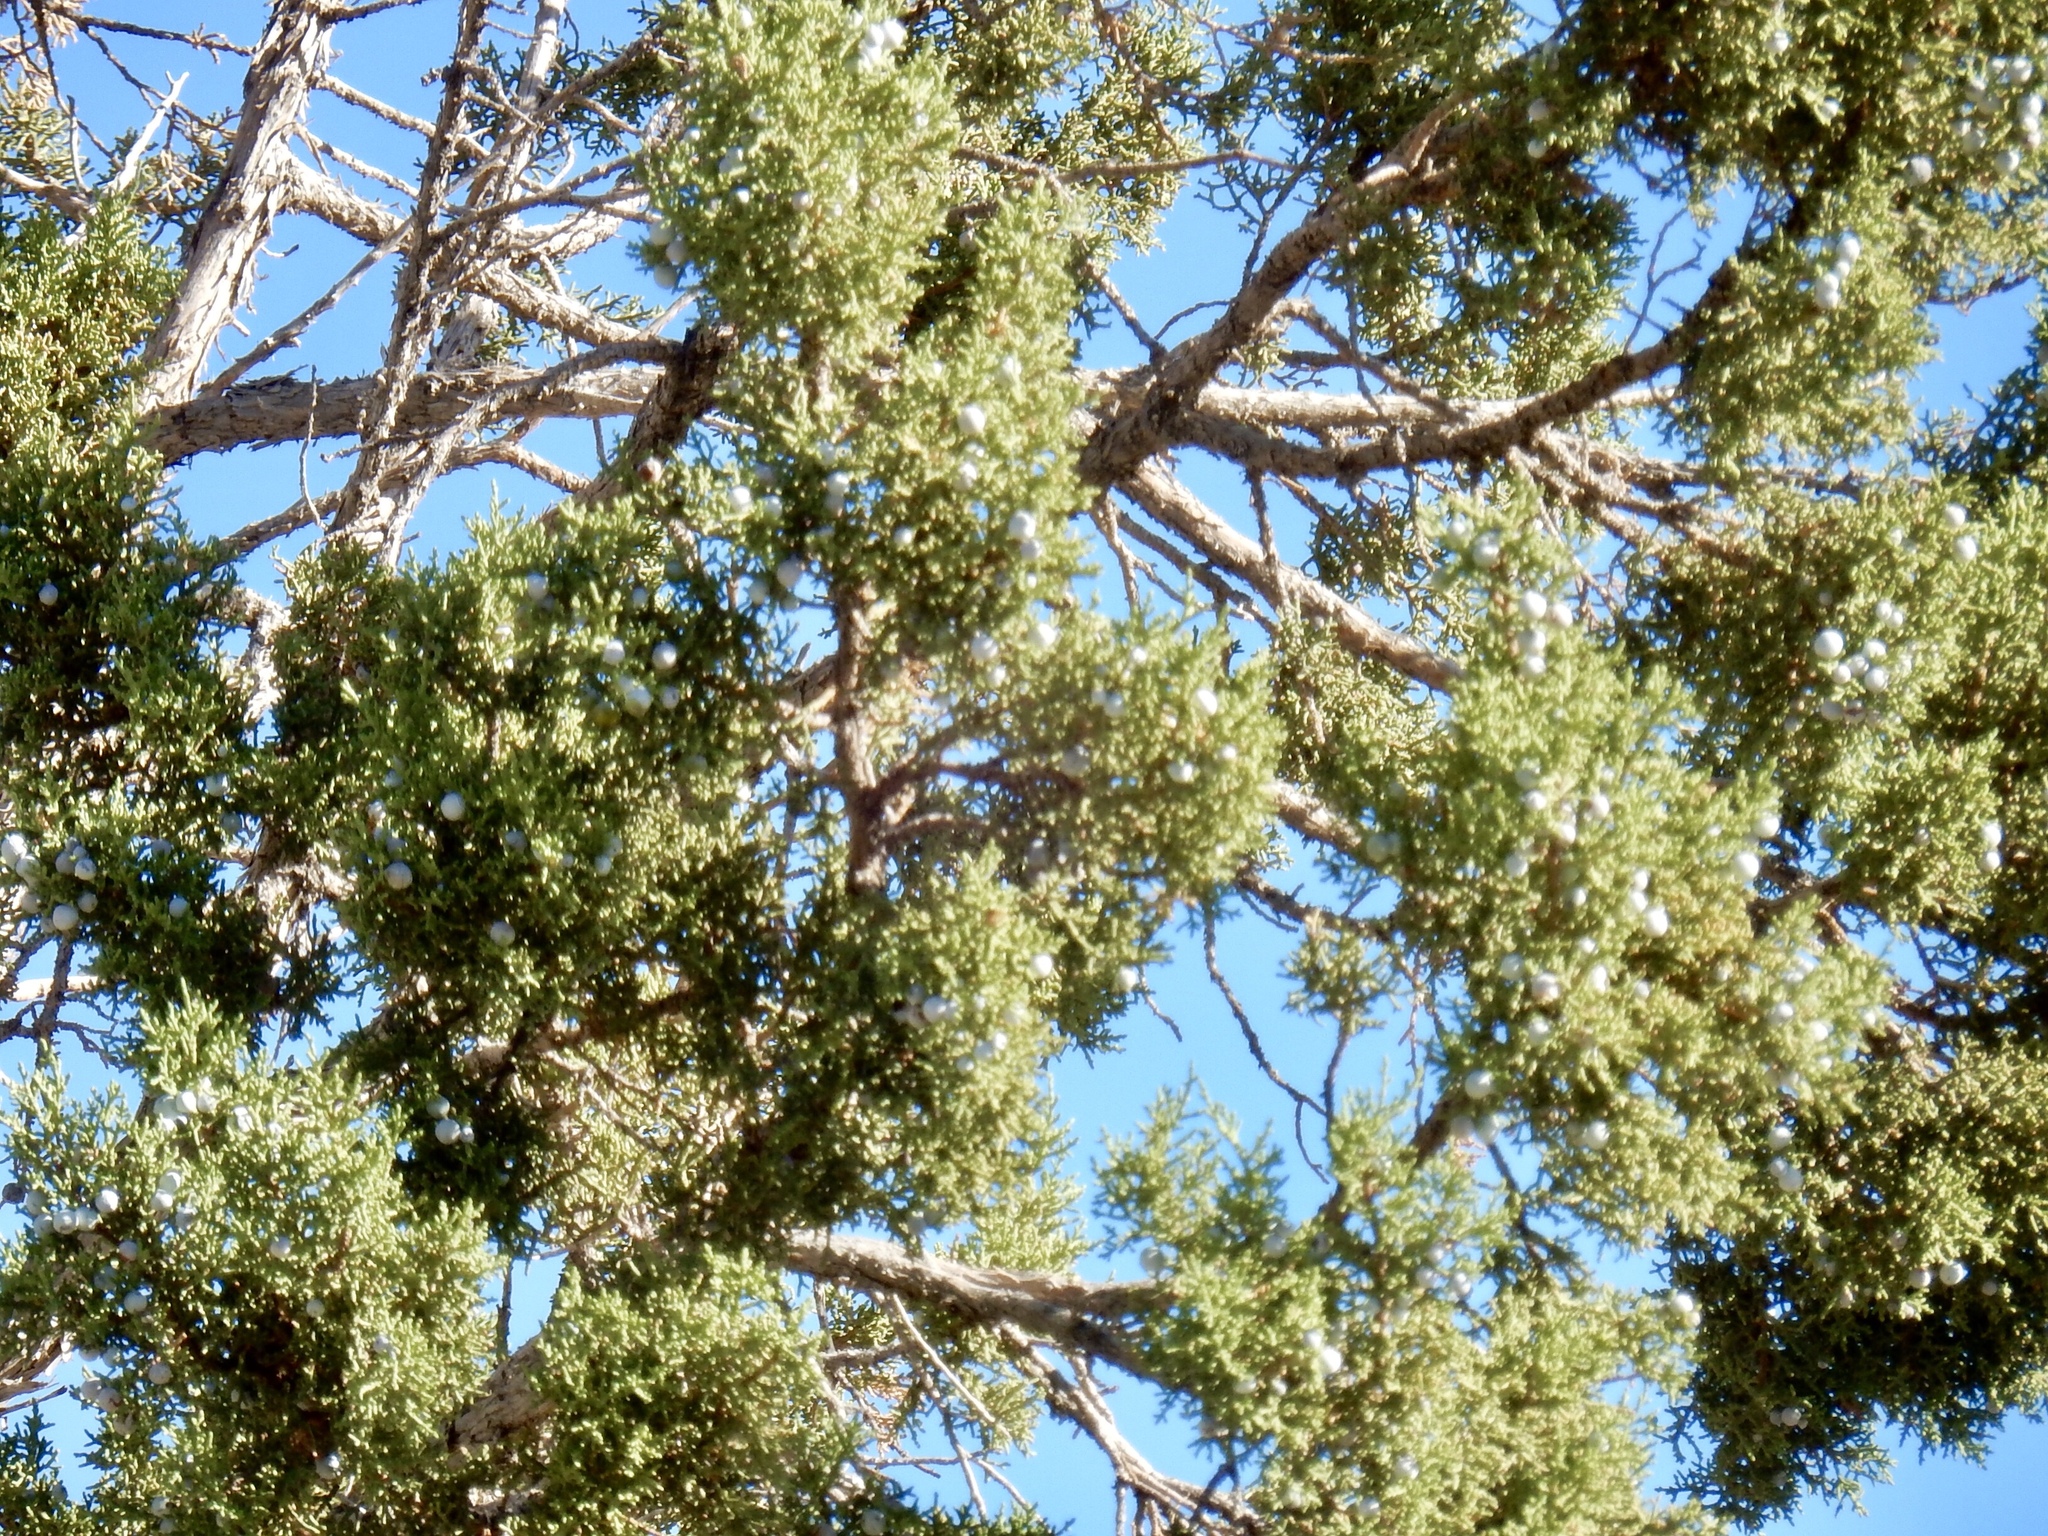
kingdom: Plantae
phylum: Tracheophyta
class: Pinopsida
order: Pinales
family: Cupressaceae
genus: Juniperus
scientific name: Juniperus osteosperma
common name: Utah juniper
